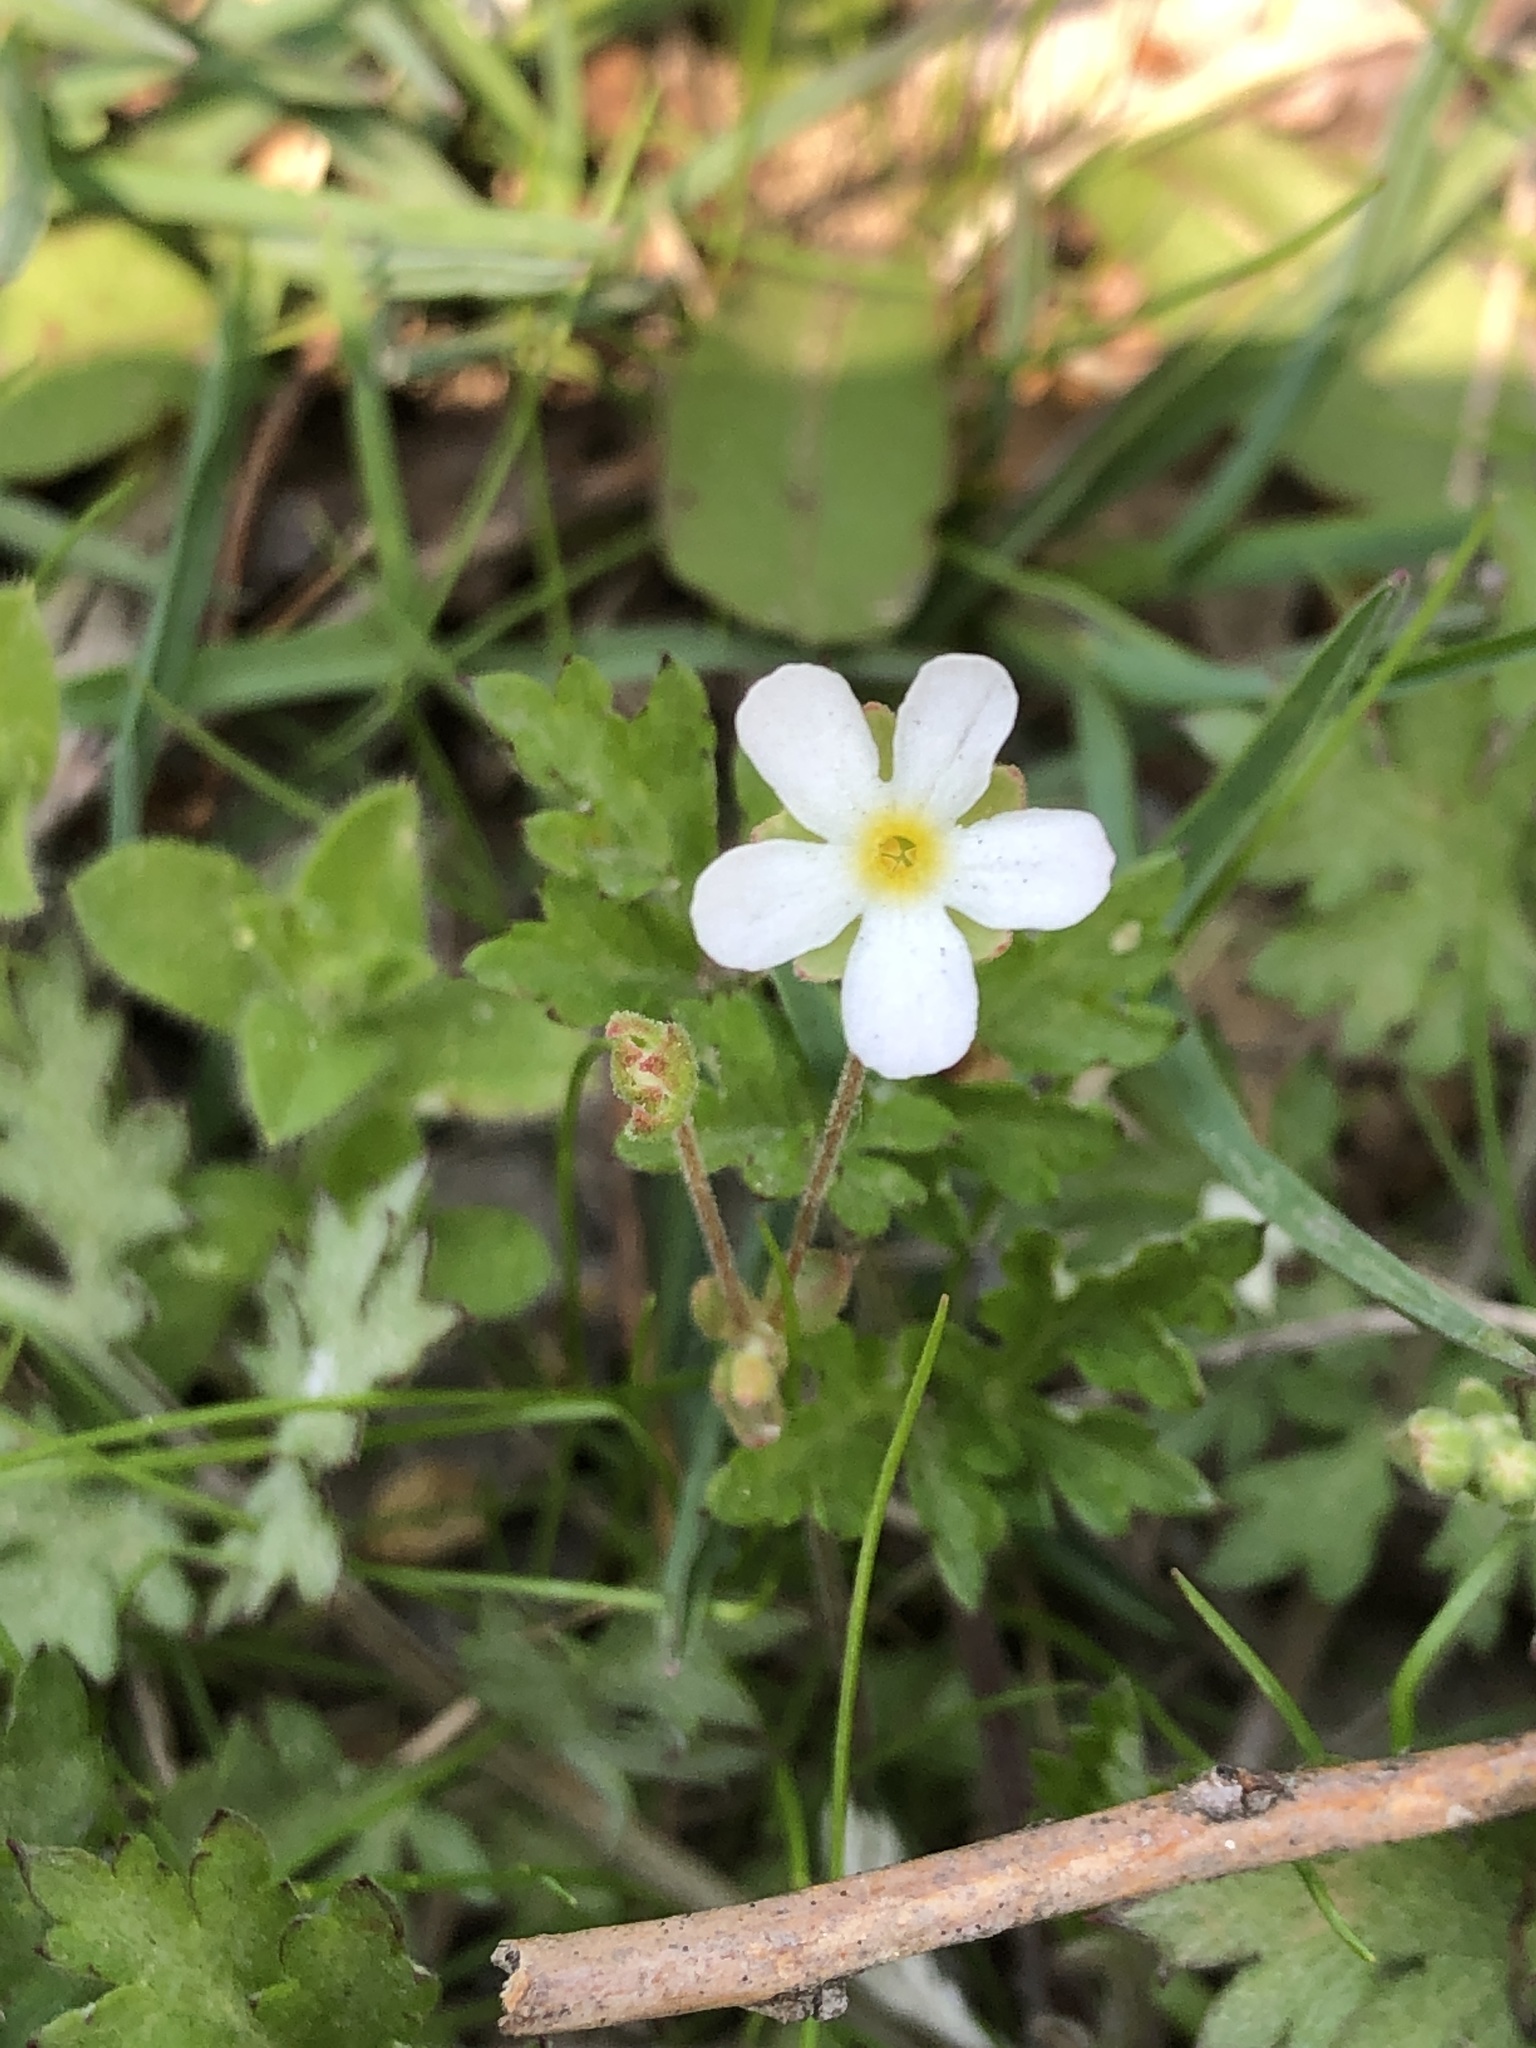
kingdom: Plantae
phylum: Tracheophyta
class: Magnoliopsida
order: Ericales
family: Primulaceae
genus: Androsace
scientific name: Androsace umbellata
